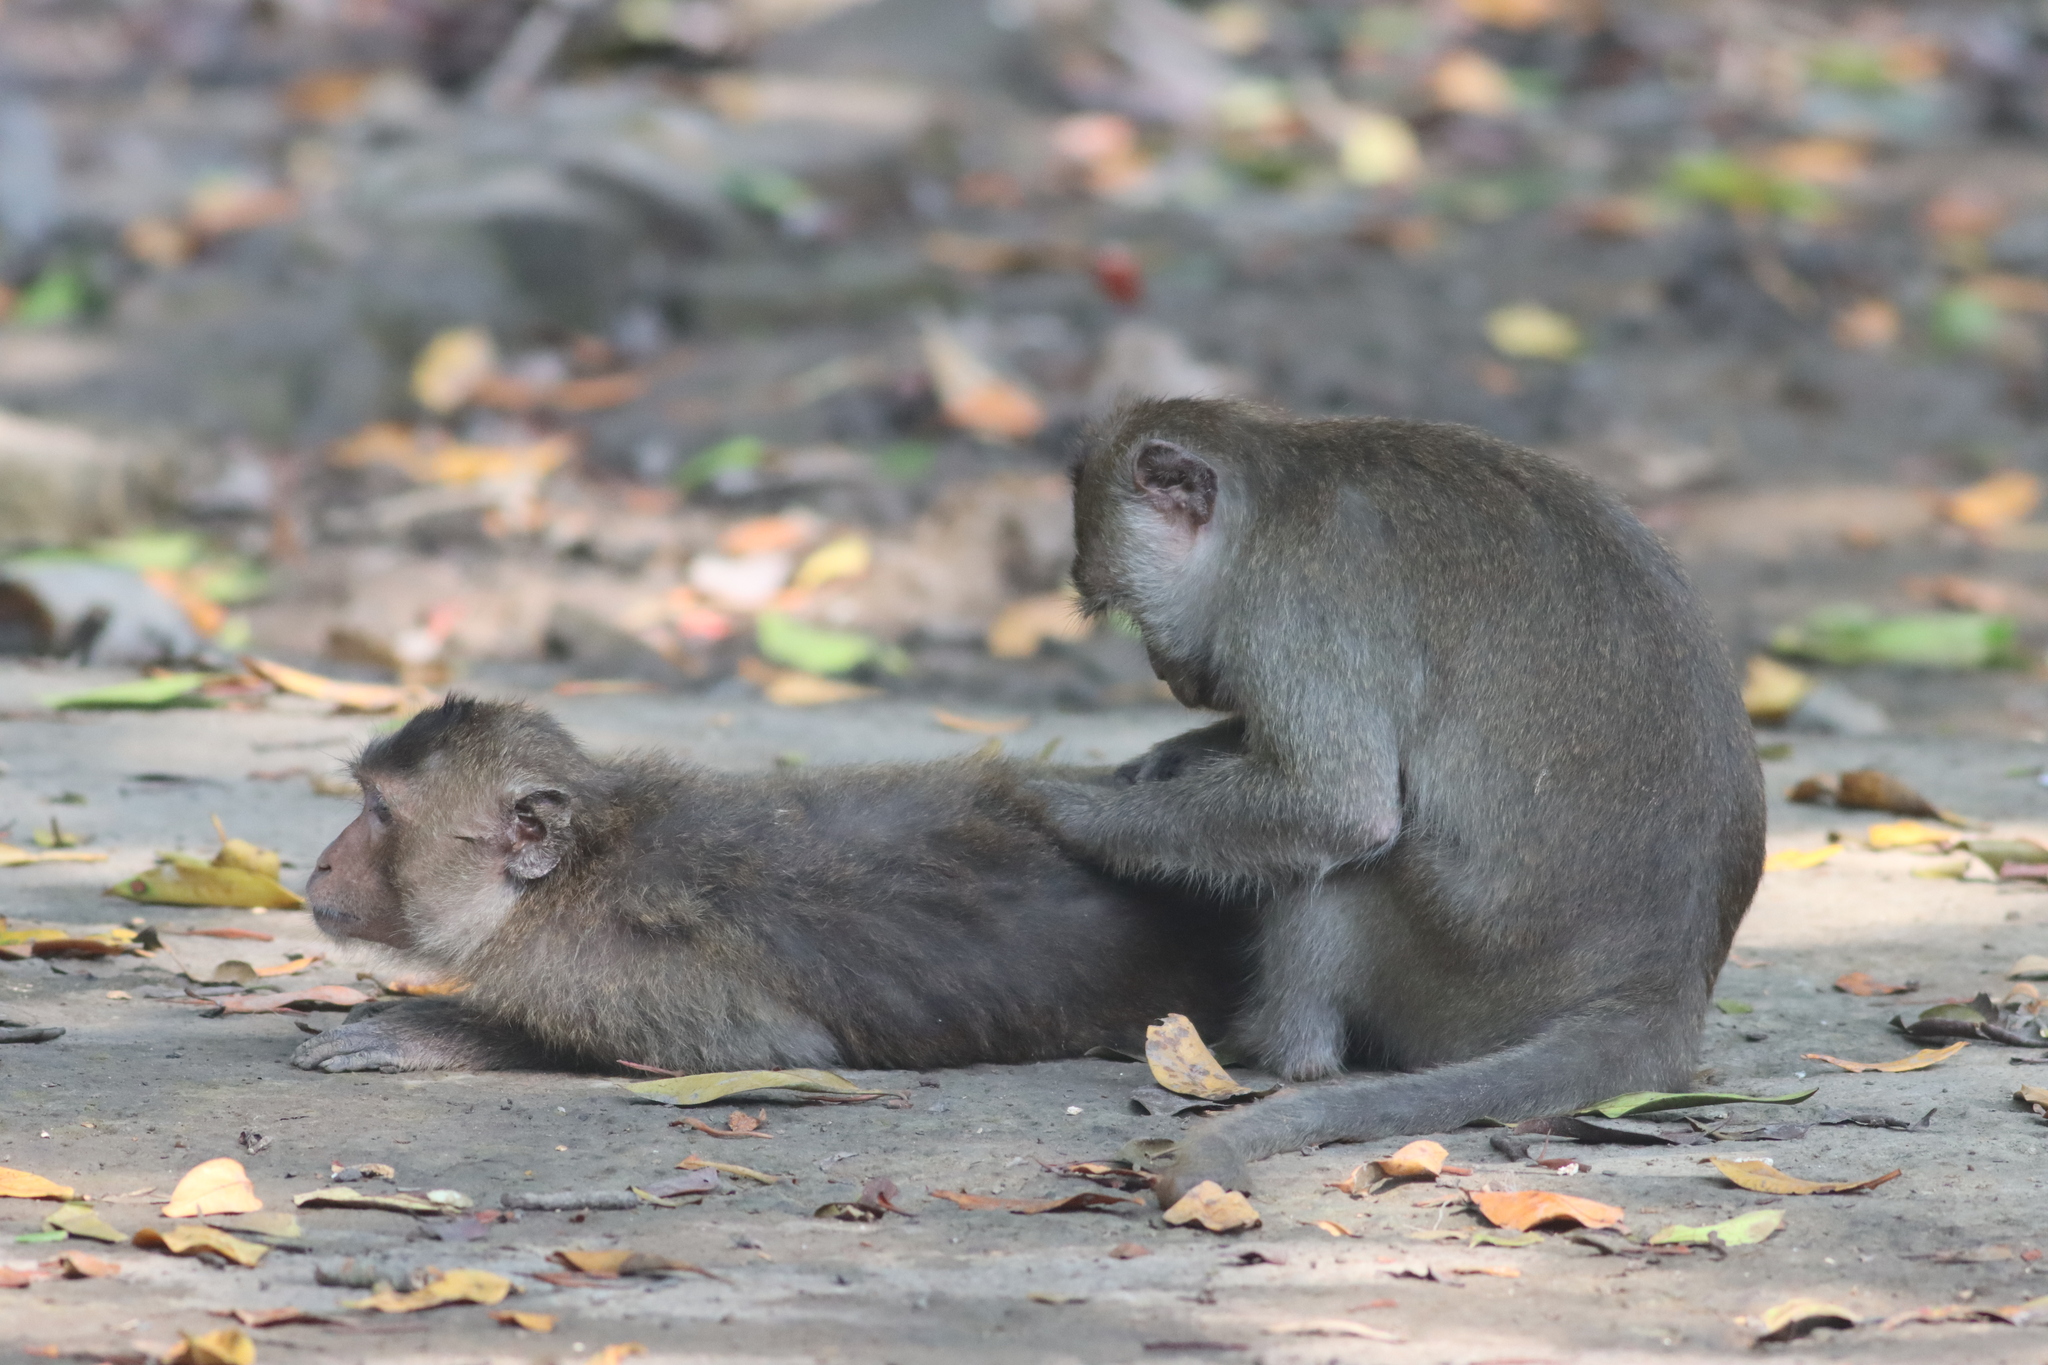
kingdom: Animalia
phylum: Chordata
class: Mammalia
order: Primates
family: Cercopithecidae
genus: Macaca
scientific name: Macaca fascicularis
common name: Crab-eating macaque
